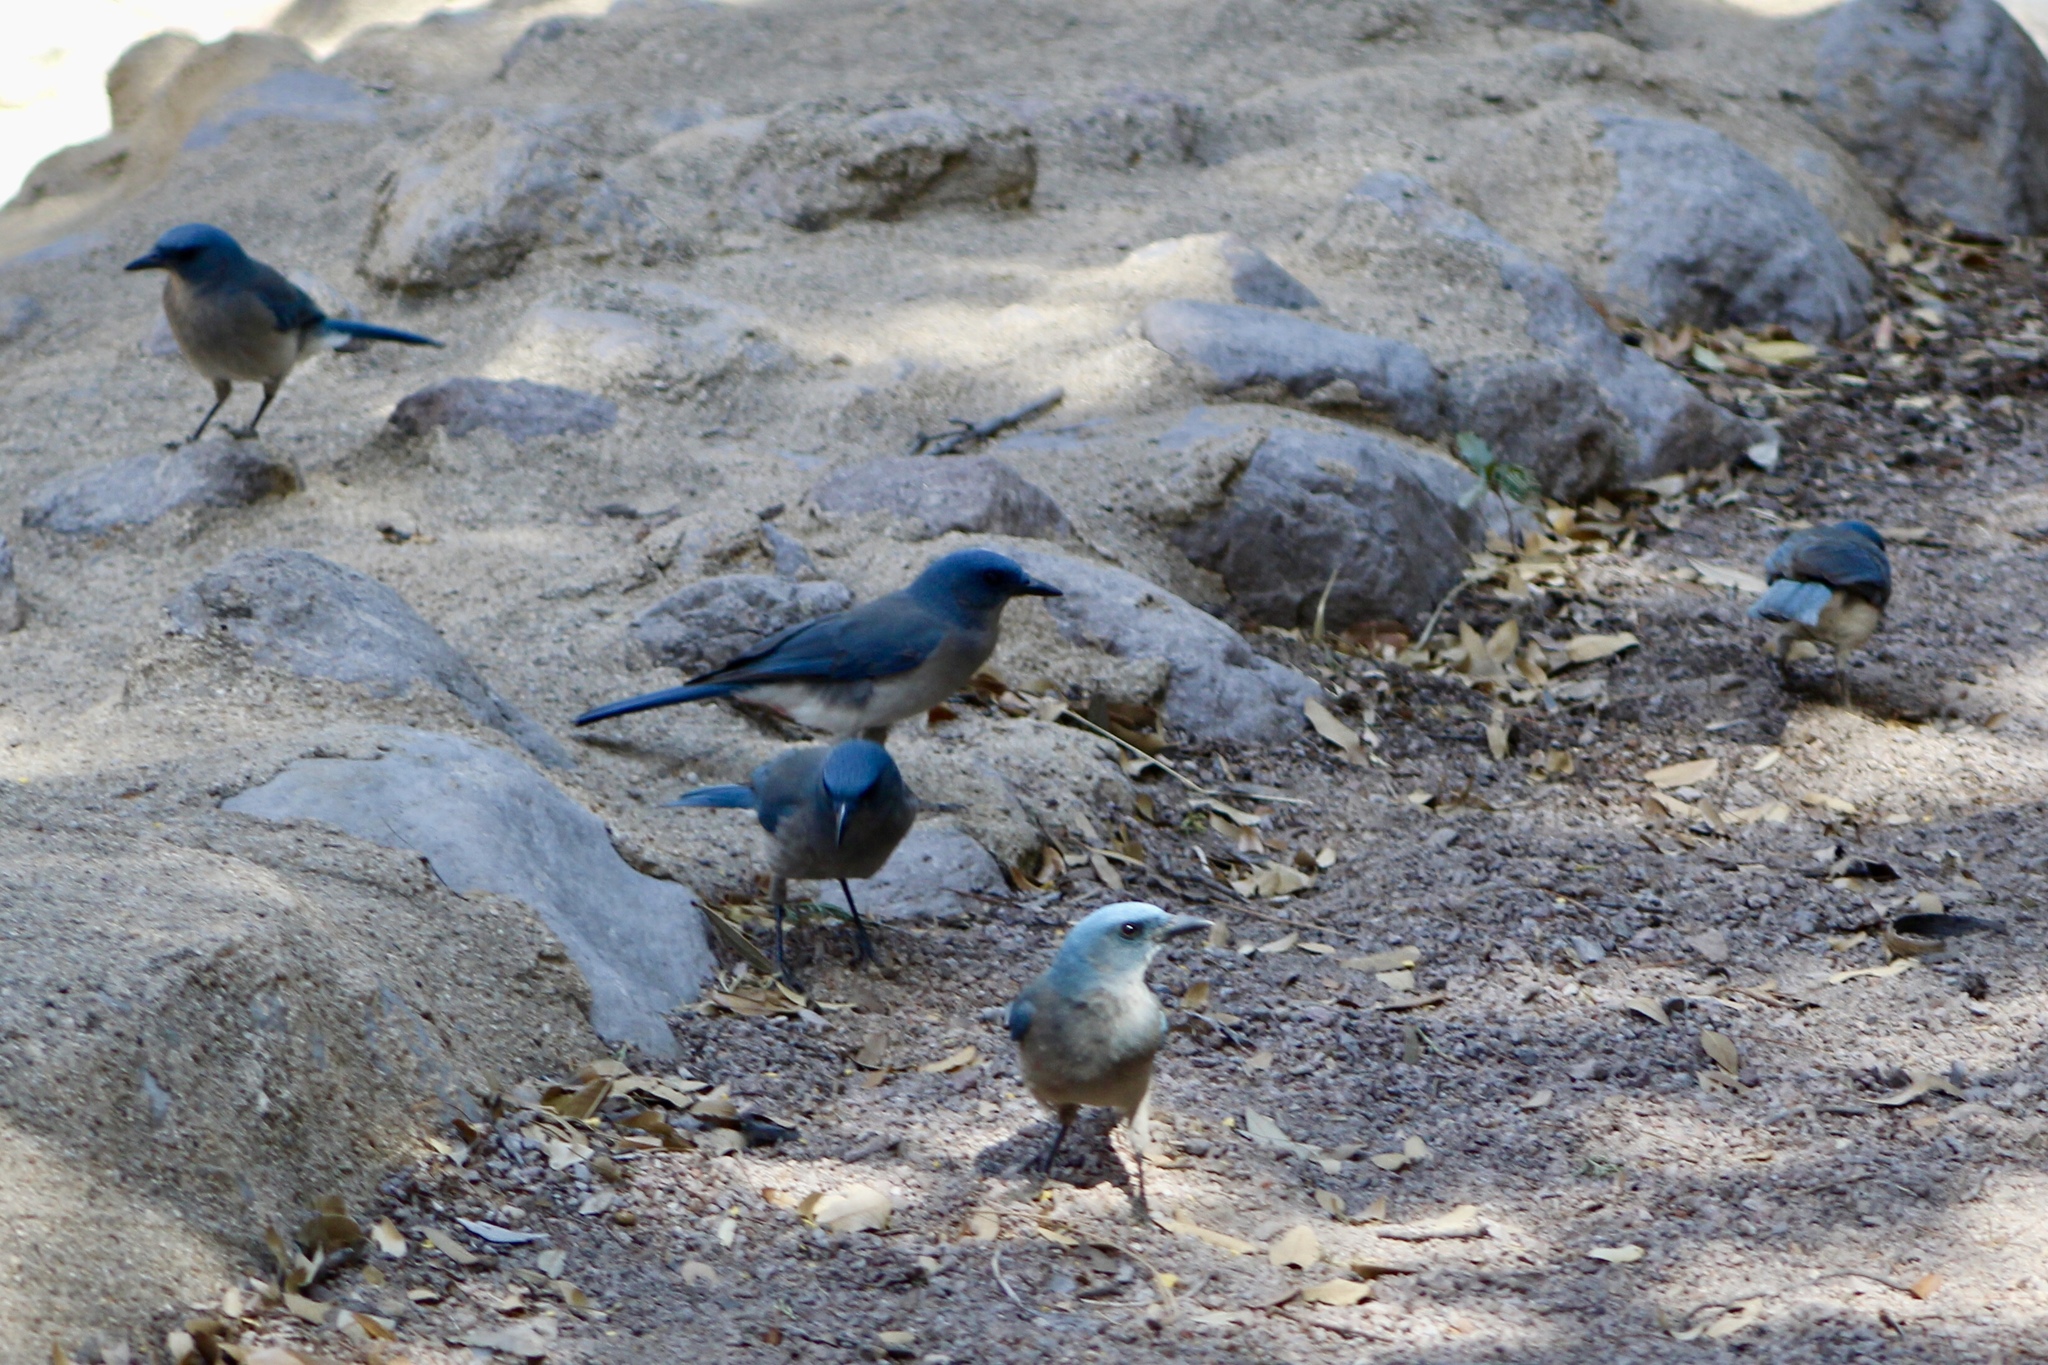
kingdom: Animalia
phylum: Chordata
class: Aves
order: Passeriformes
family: Corvidae
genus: Aphelocoma
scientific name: Aphelocoma wollweberi
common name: Mexican jay
